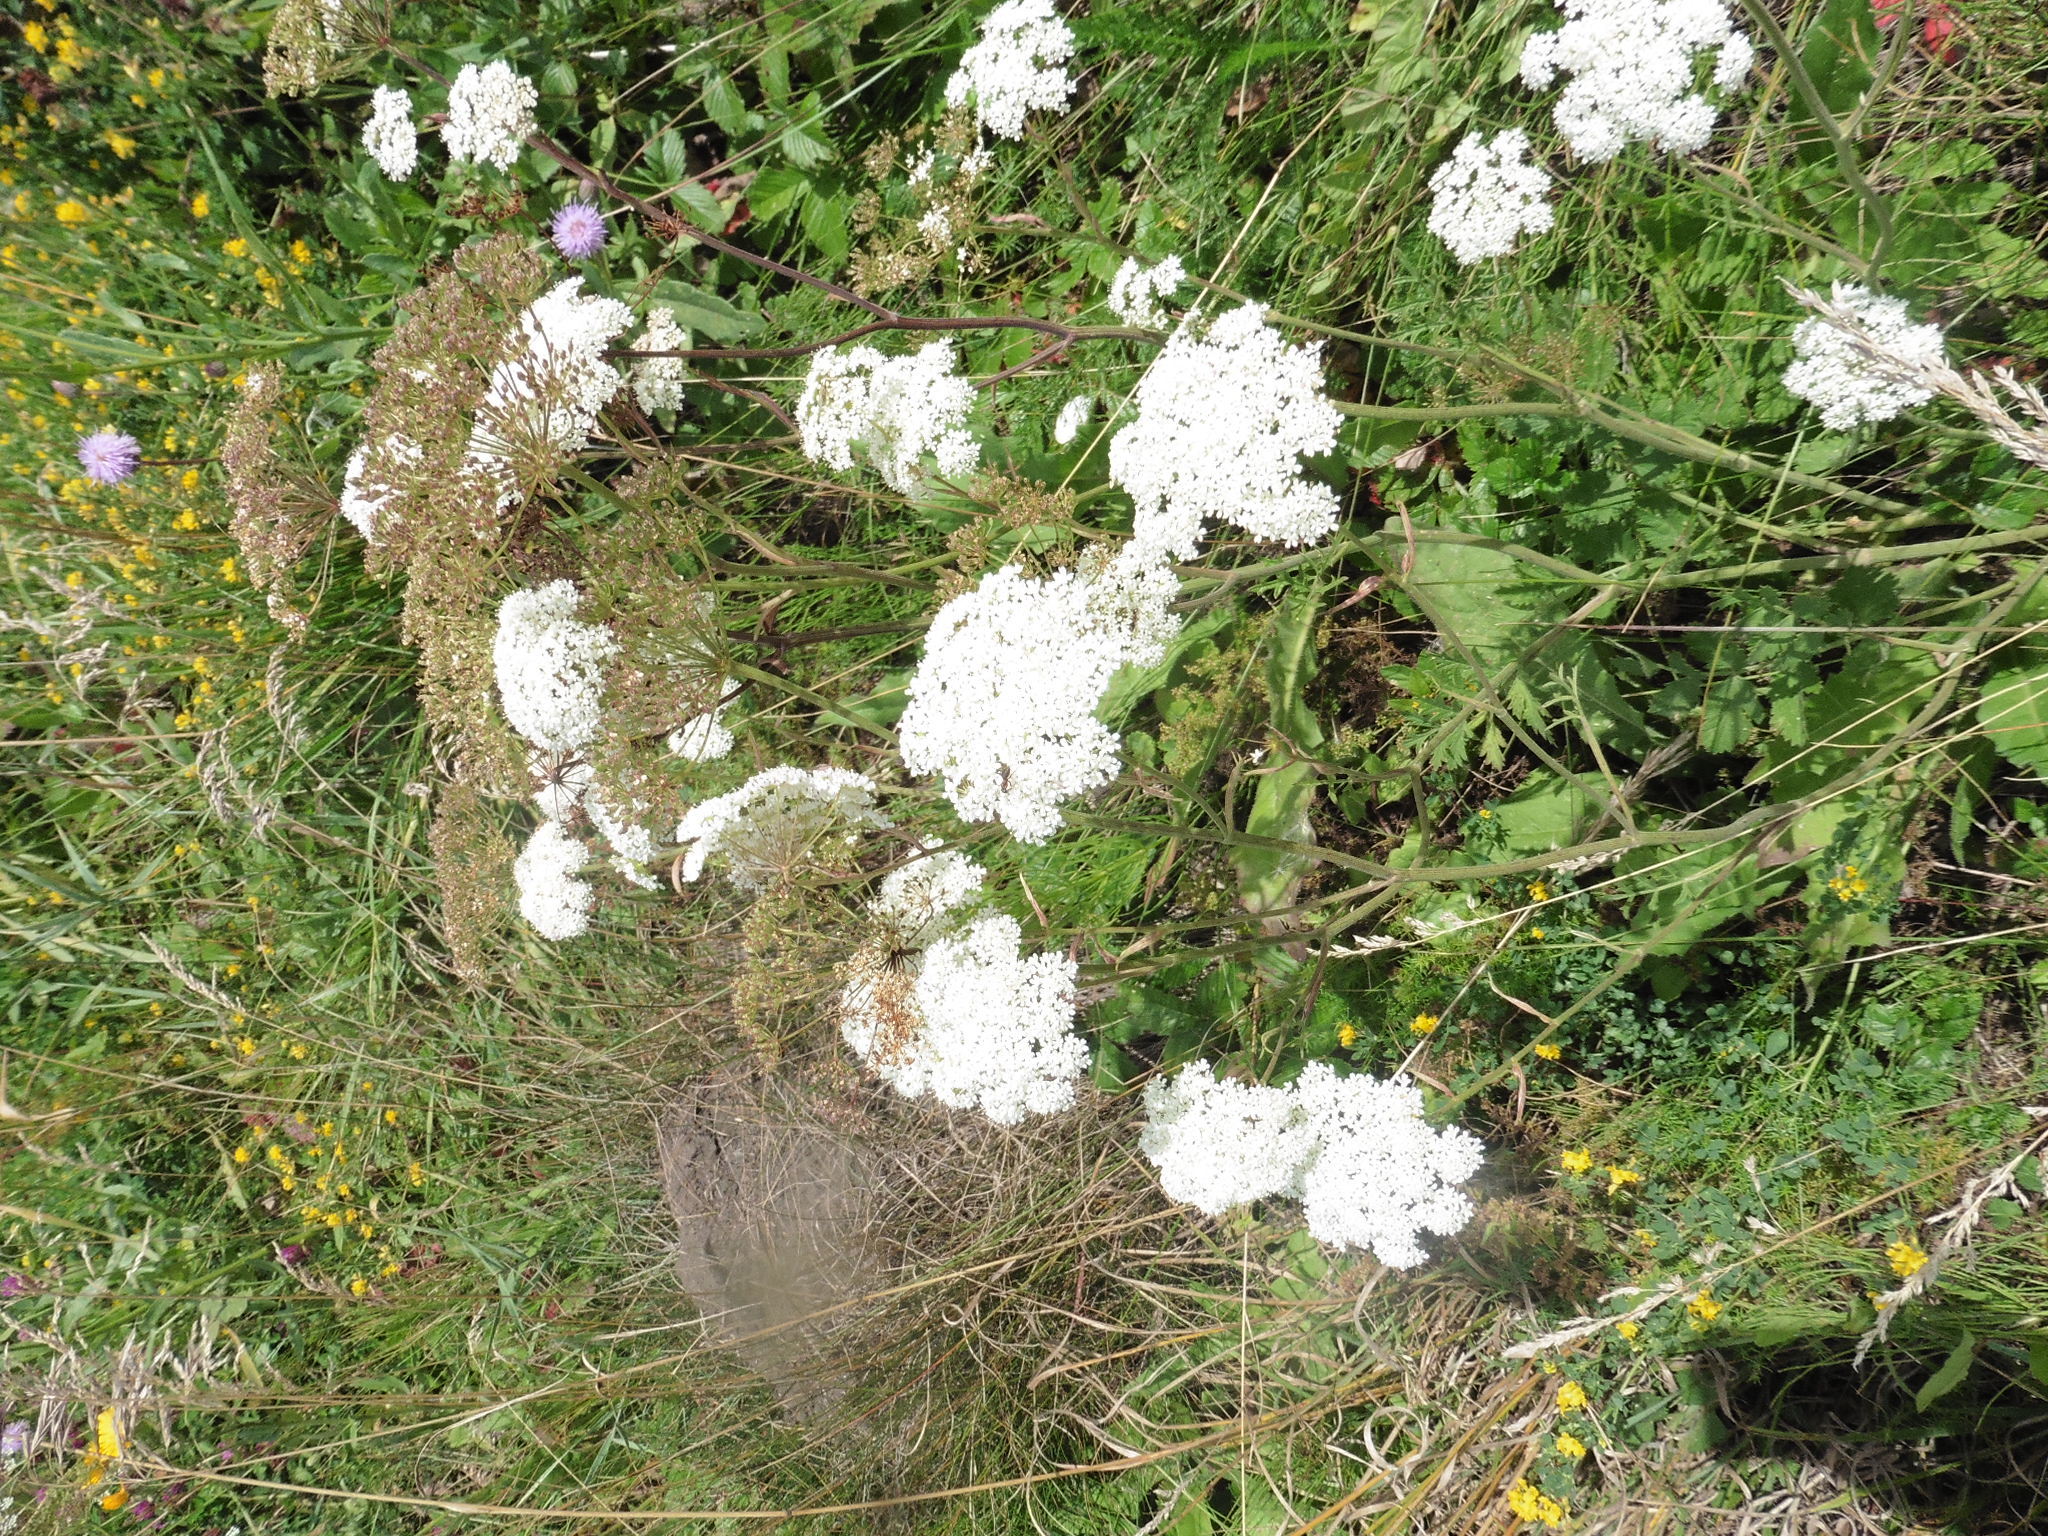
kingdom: Plantae
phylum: Tracheophyta
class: Magnoliopsida
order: Apiales
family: Apiaceae
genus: Pimpinella
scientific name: Pimpinella saxifraga
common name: Burnet-saxifrage
